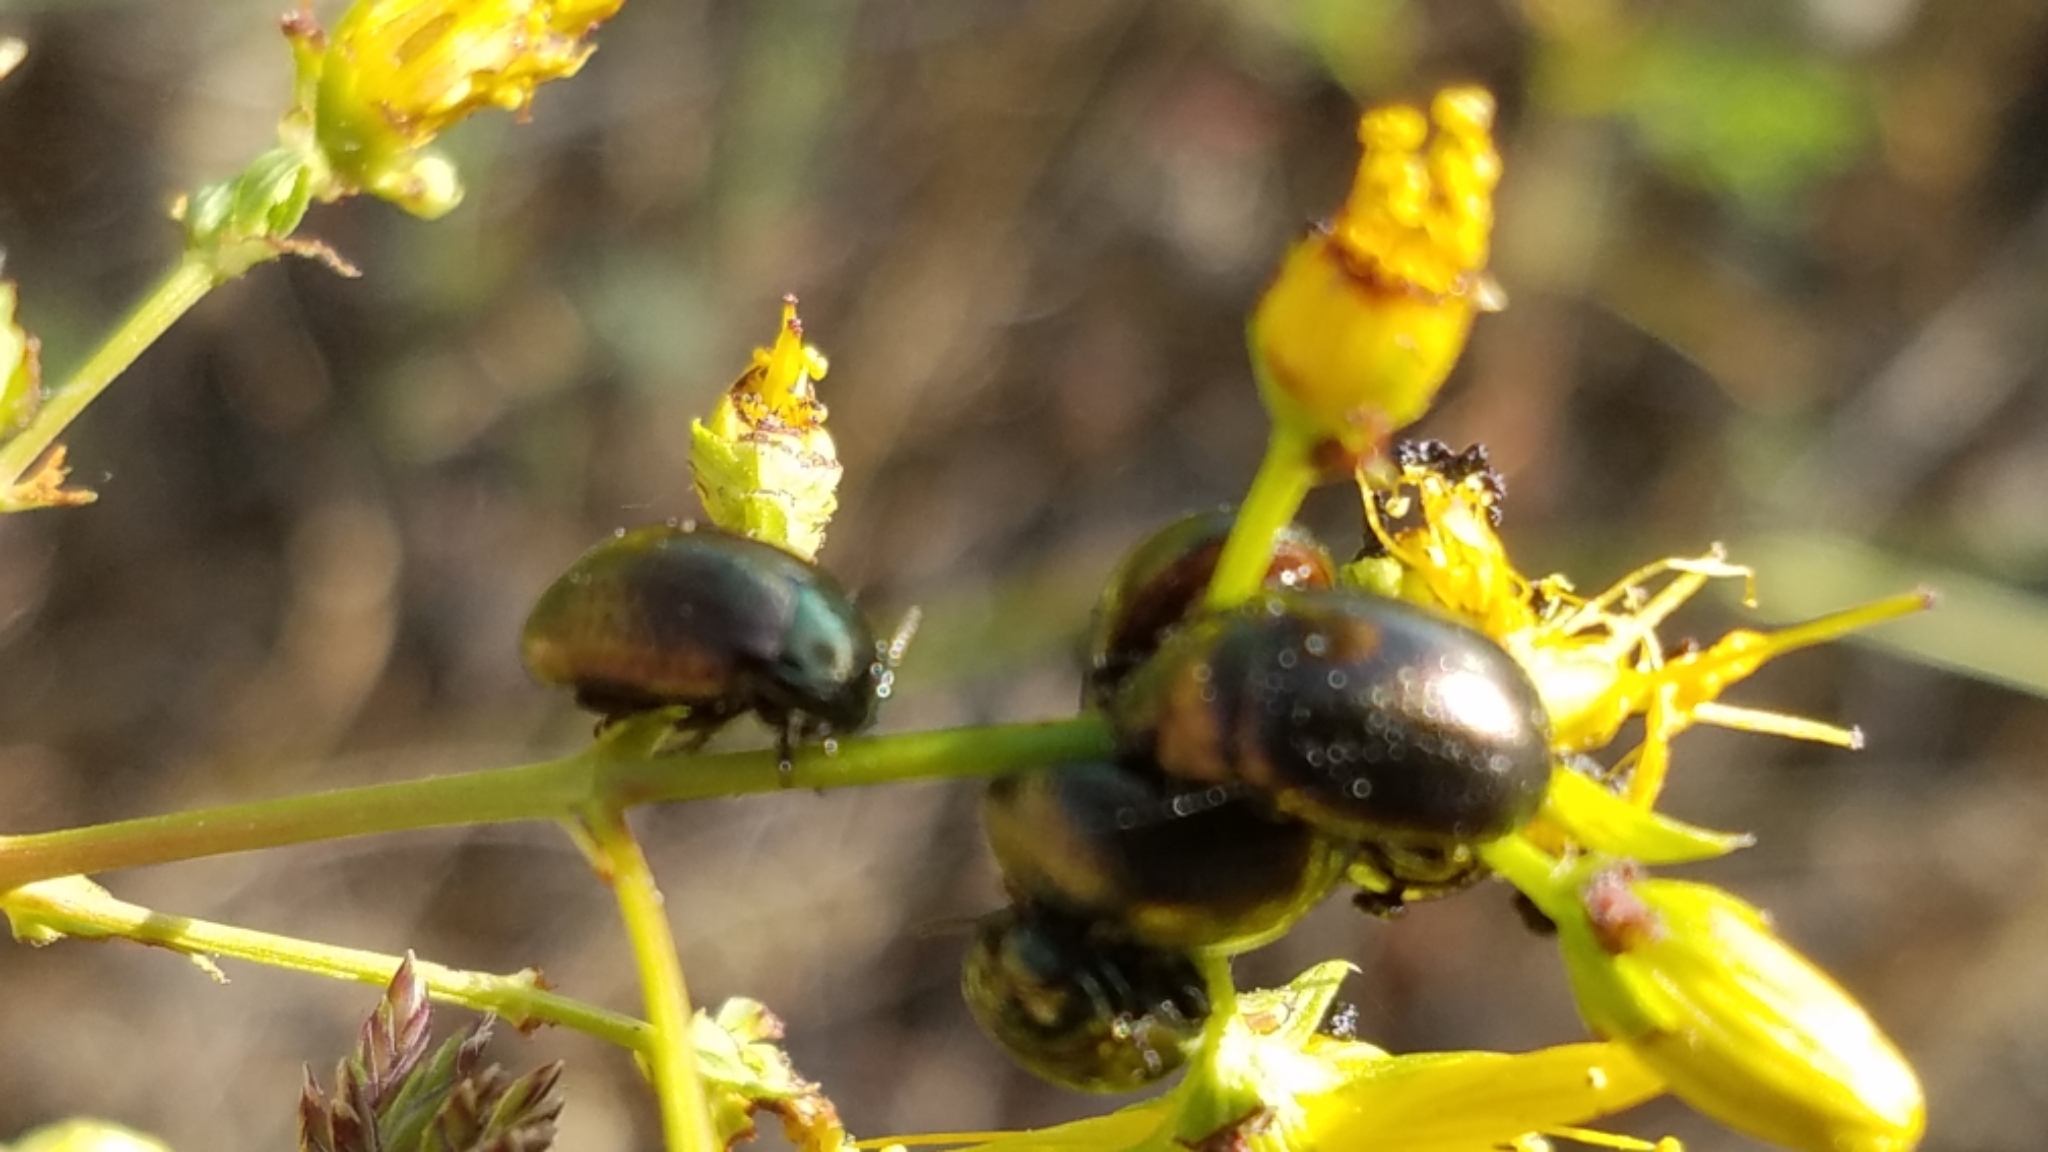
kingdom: Animalia
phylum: Arthropoda
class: Insecta
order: Coleoptera
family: Chrysomelidae
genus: Chrysolina
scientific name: Chrysolina hyperici
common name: St. johnswort beetle
